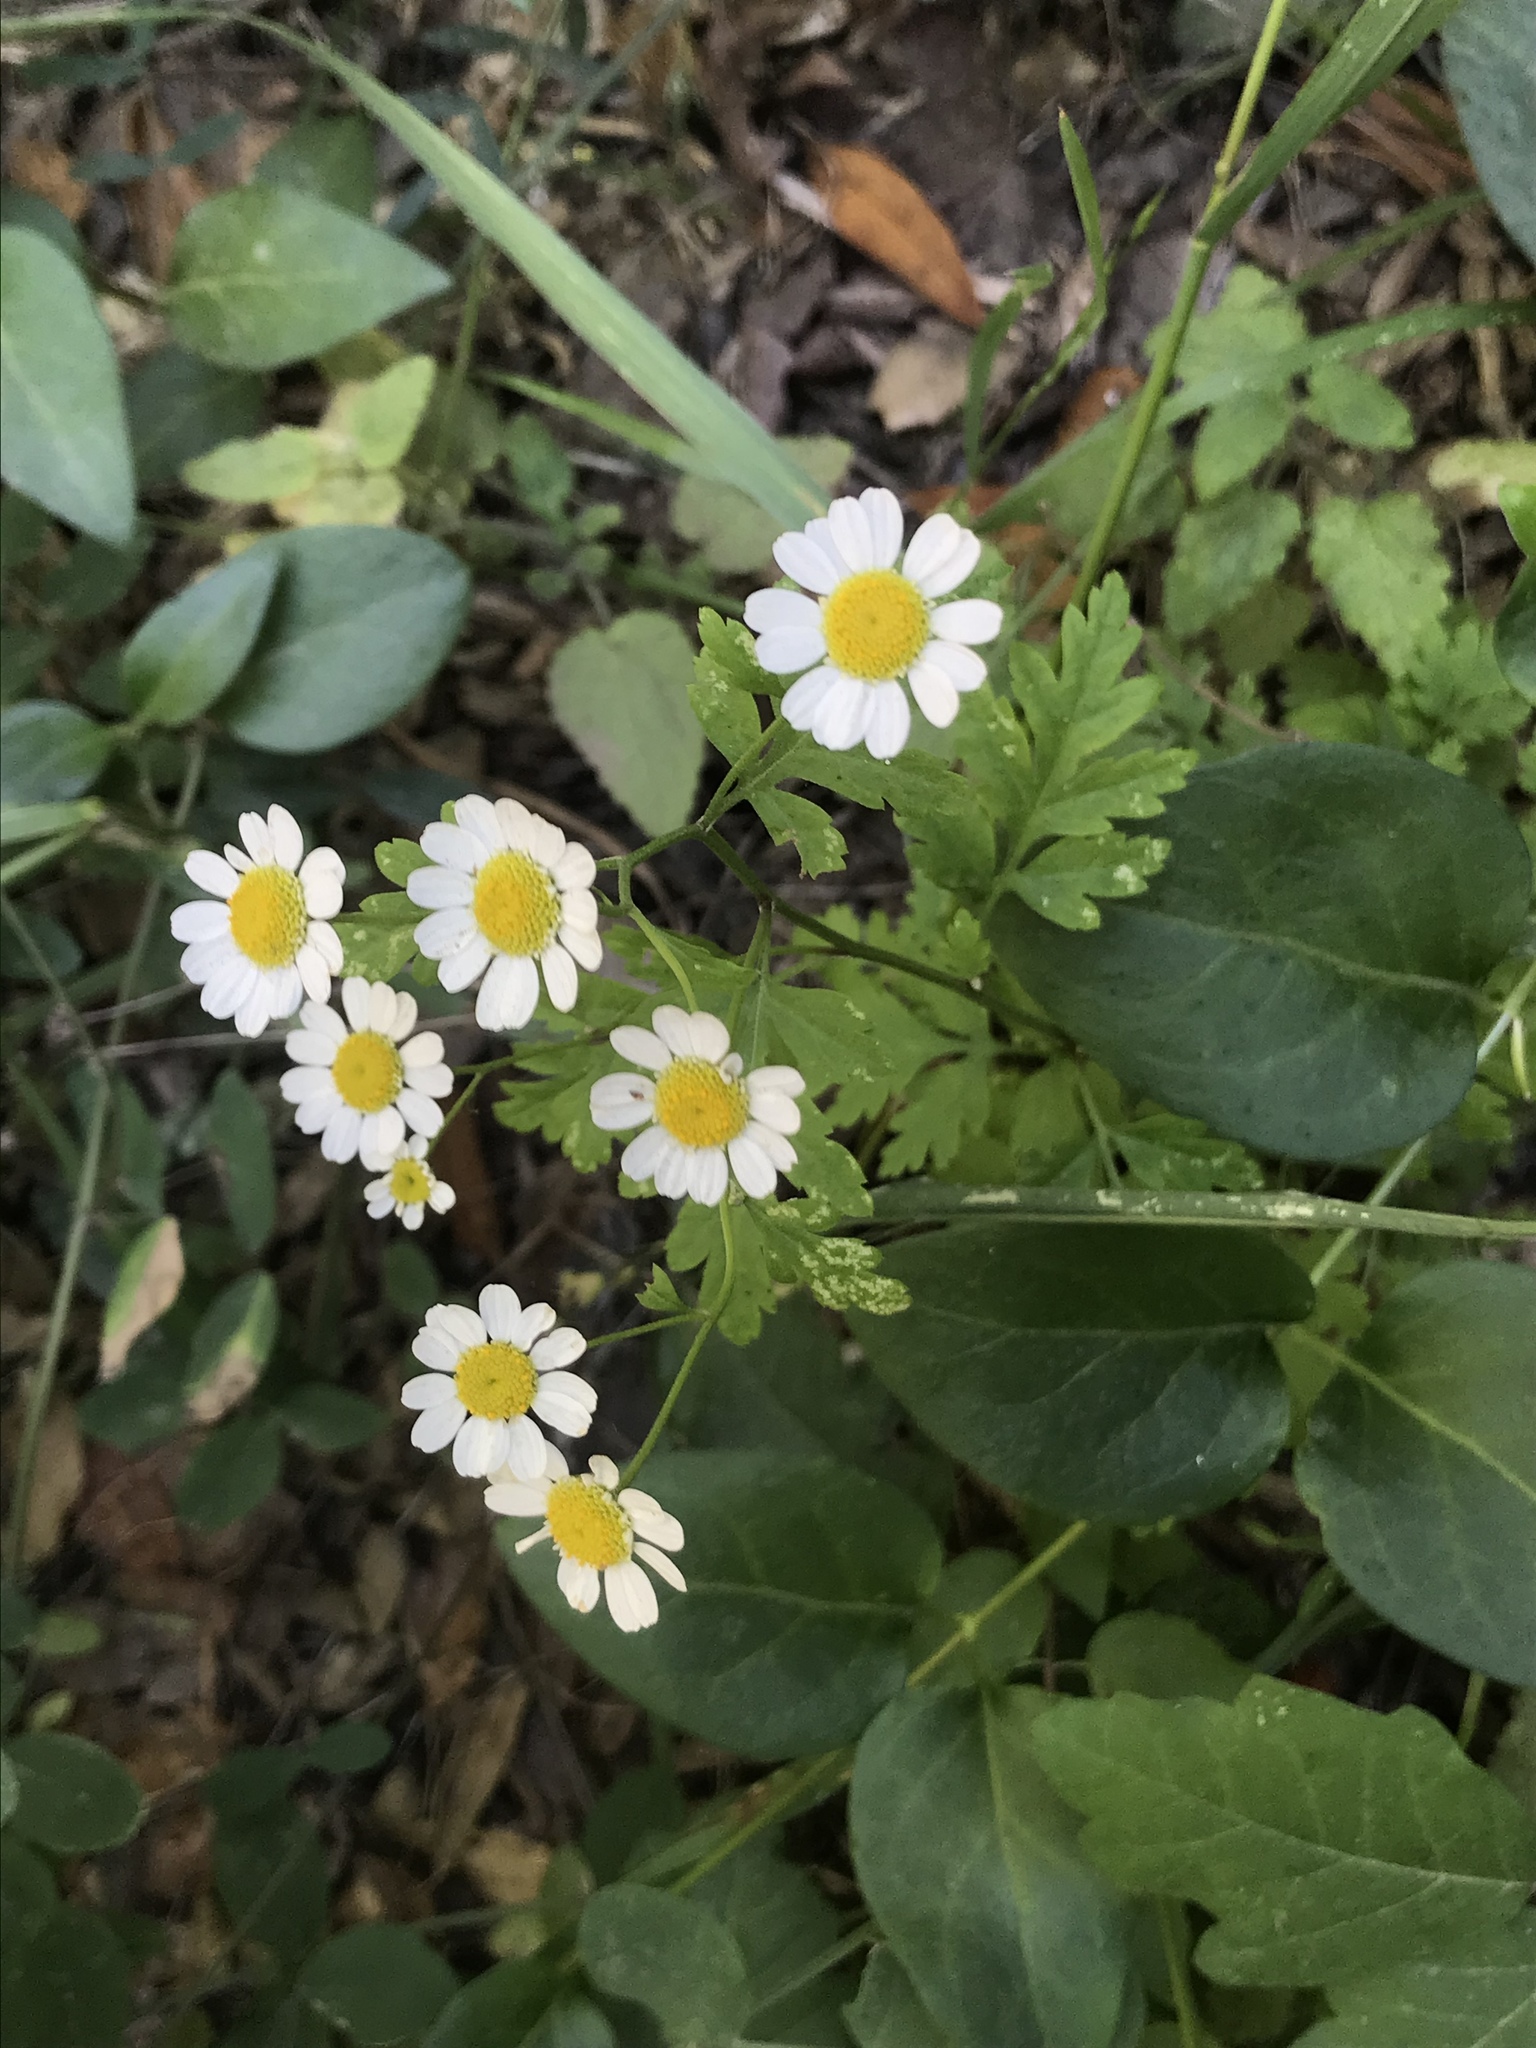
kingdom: Plantae
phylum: Tracheophyta
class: Magnoliopsida
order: Asterales
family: Asteraceae
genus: Tanacetum
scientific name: Tanacetum parthenium
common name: Feverfew
